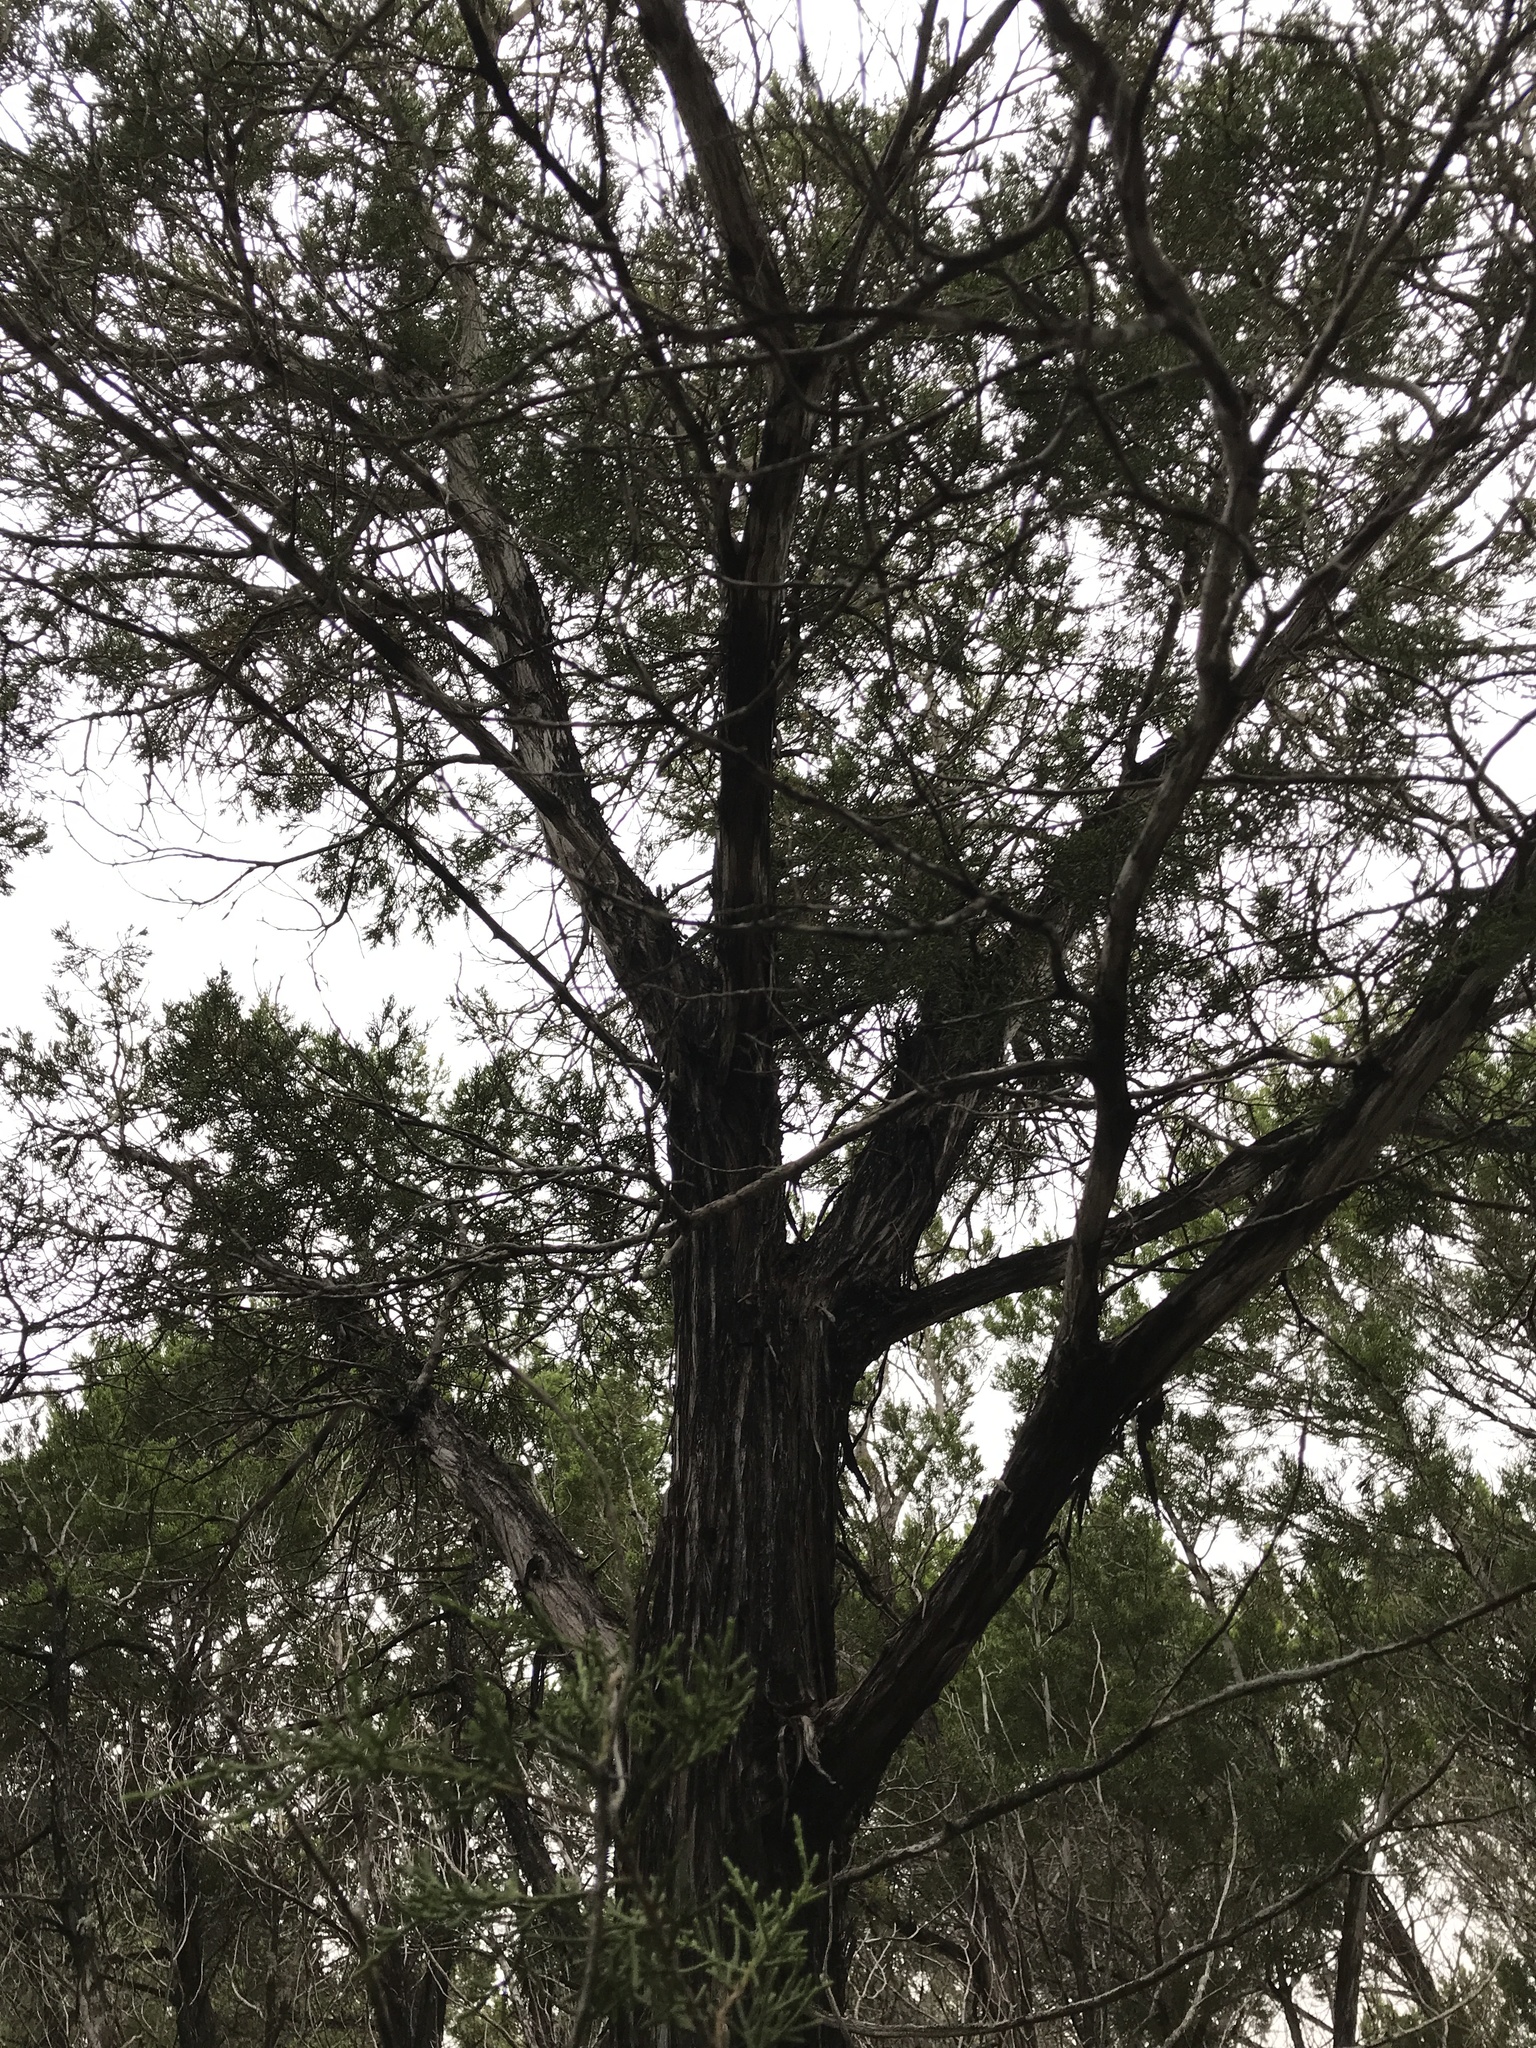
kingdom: Plantae
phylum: Tracheophyta
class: Pinopsida
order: Pinales
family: Cupressaceae
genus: Juniperus
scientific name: Juniperus ashei
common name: Mexican juniper
